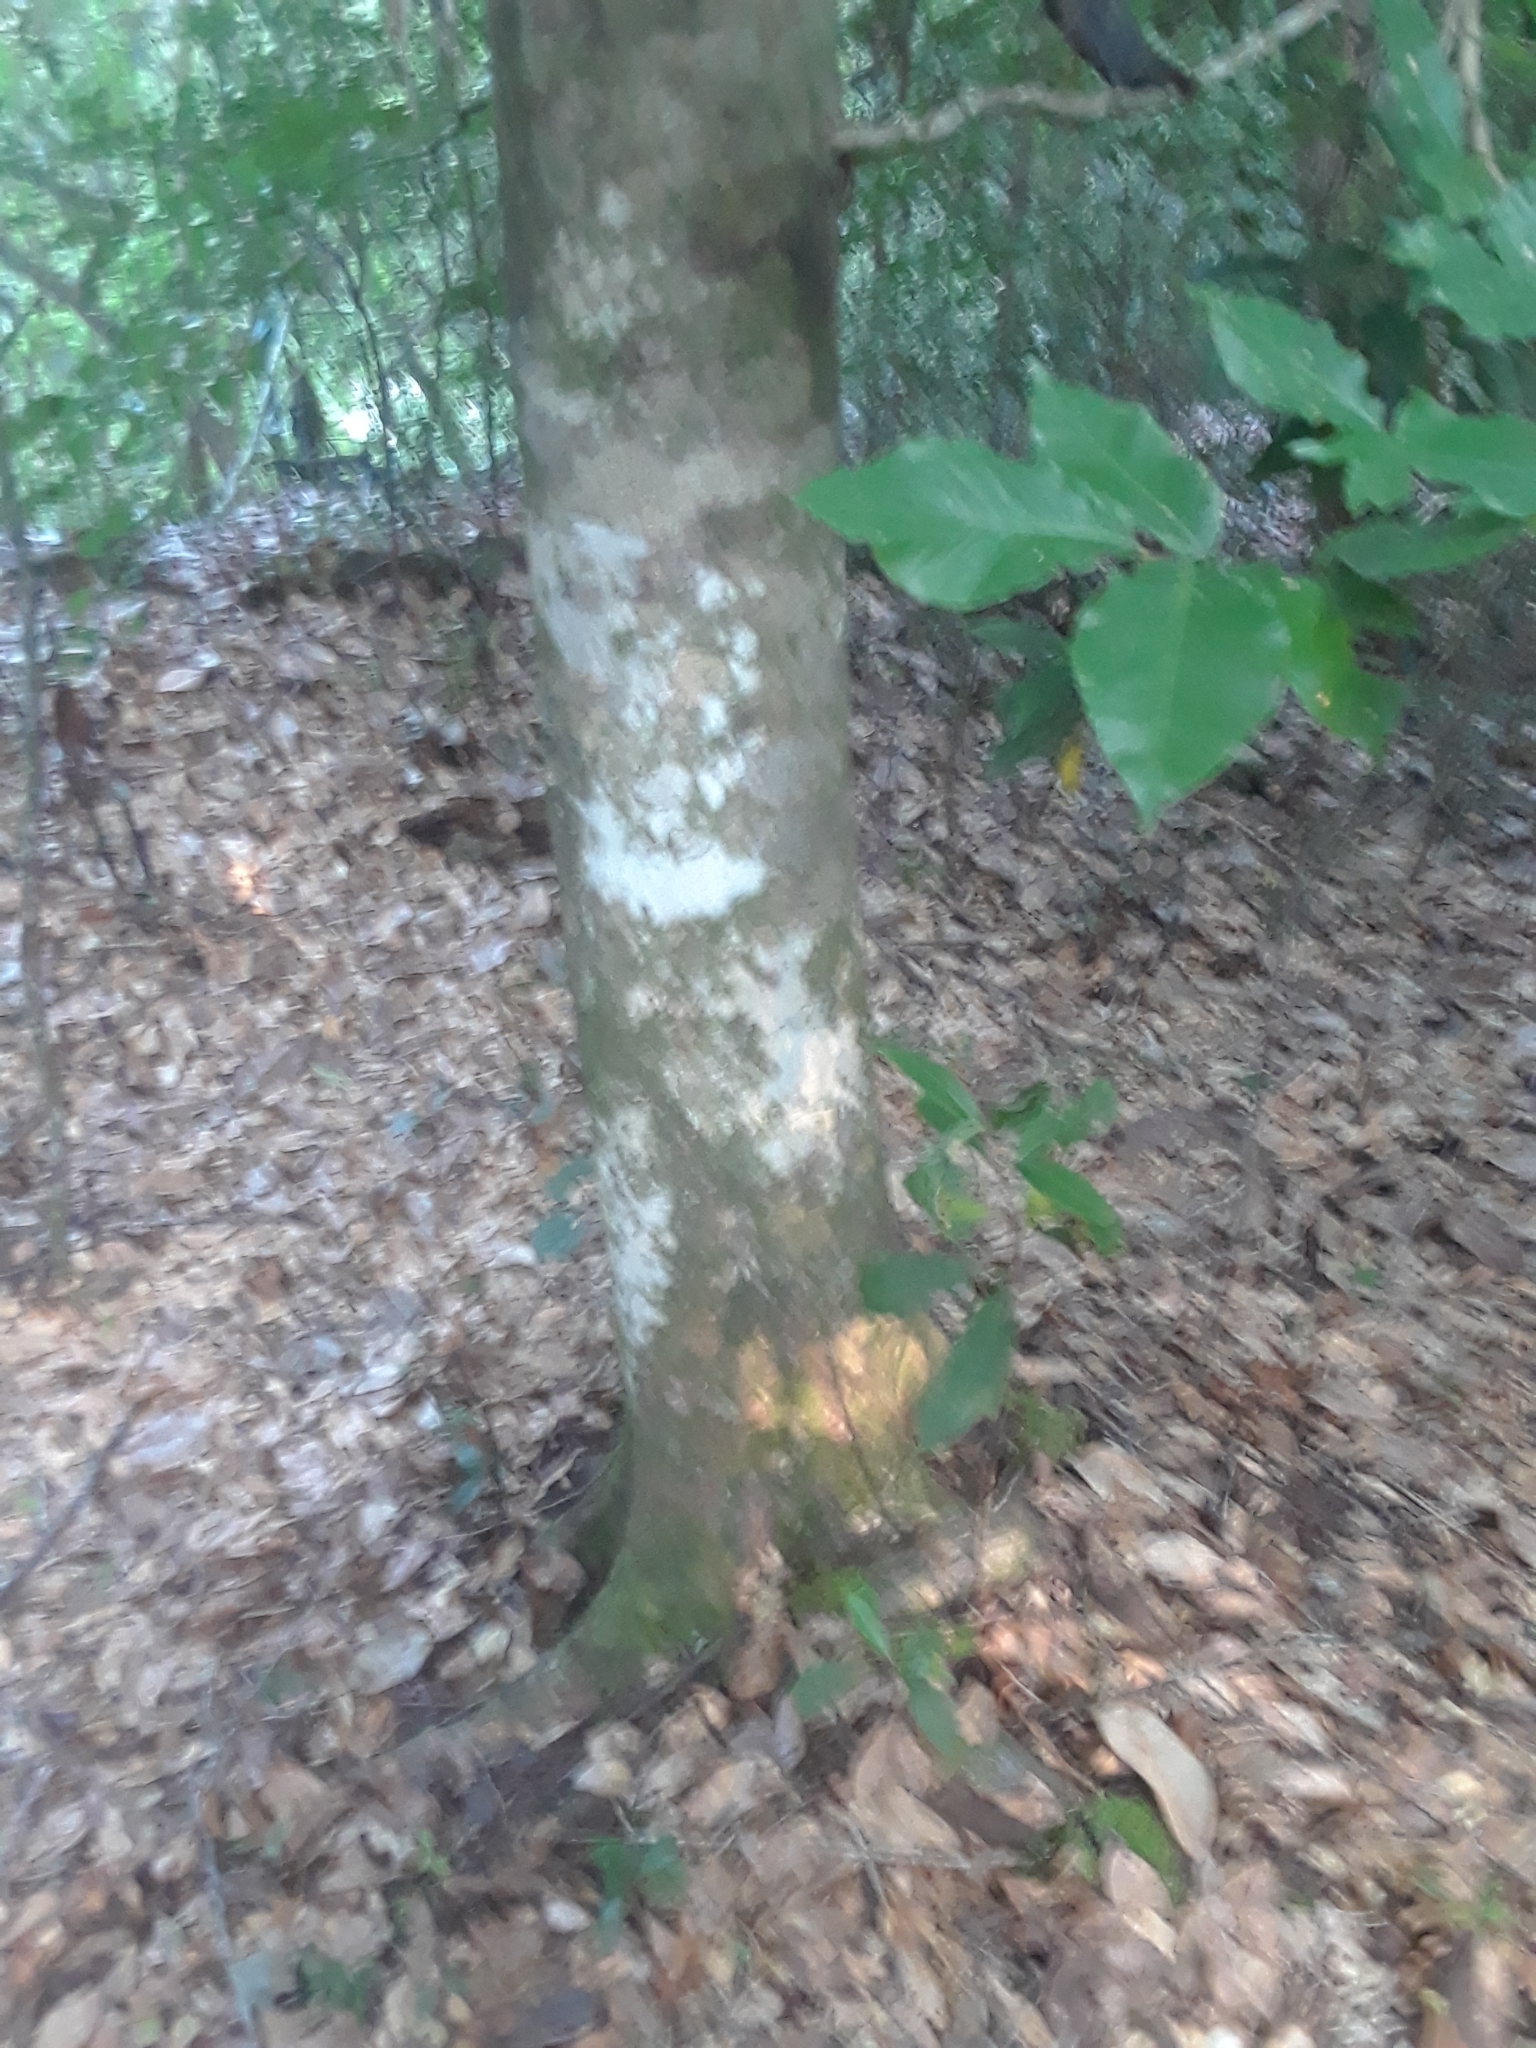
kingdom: Plantae
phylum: Tracheophyta
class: Magnoliopsida
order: Fagales
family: Fagaceae
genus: Fagus
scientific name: Fagus grandifolia
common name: American beech
